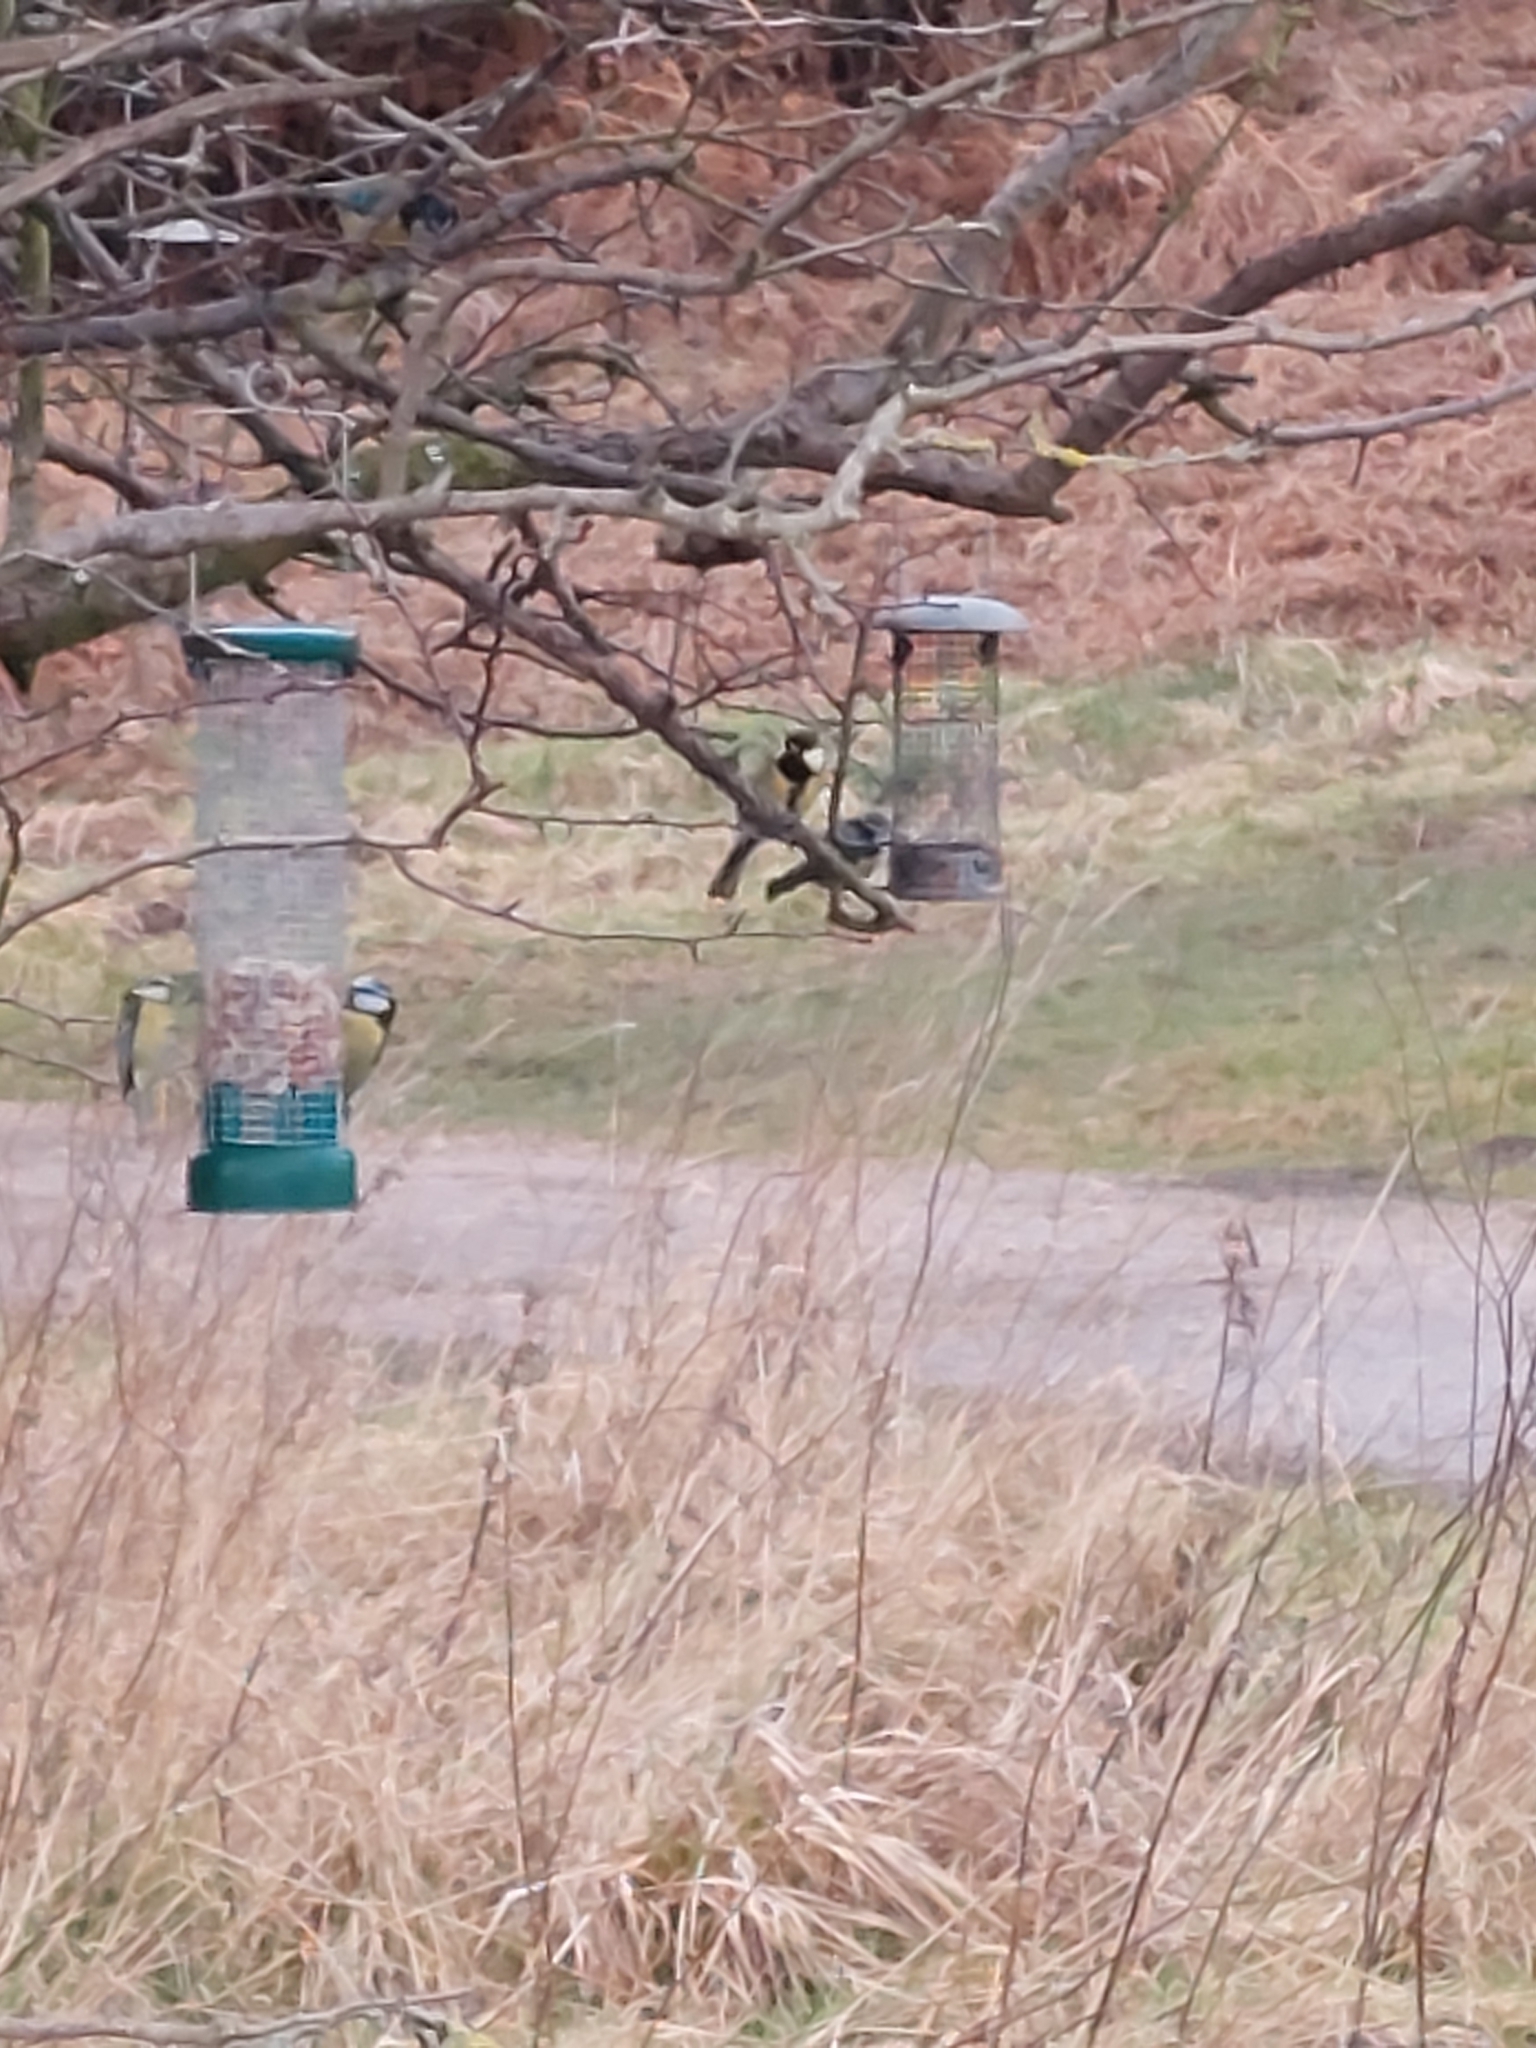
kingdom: Animalia
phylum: Chordata
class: Aves
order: Passeriformes
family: Paridae
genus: Parus
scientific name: Parus major
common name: Great tit
